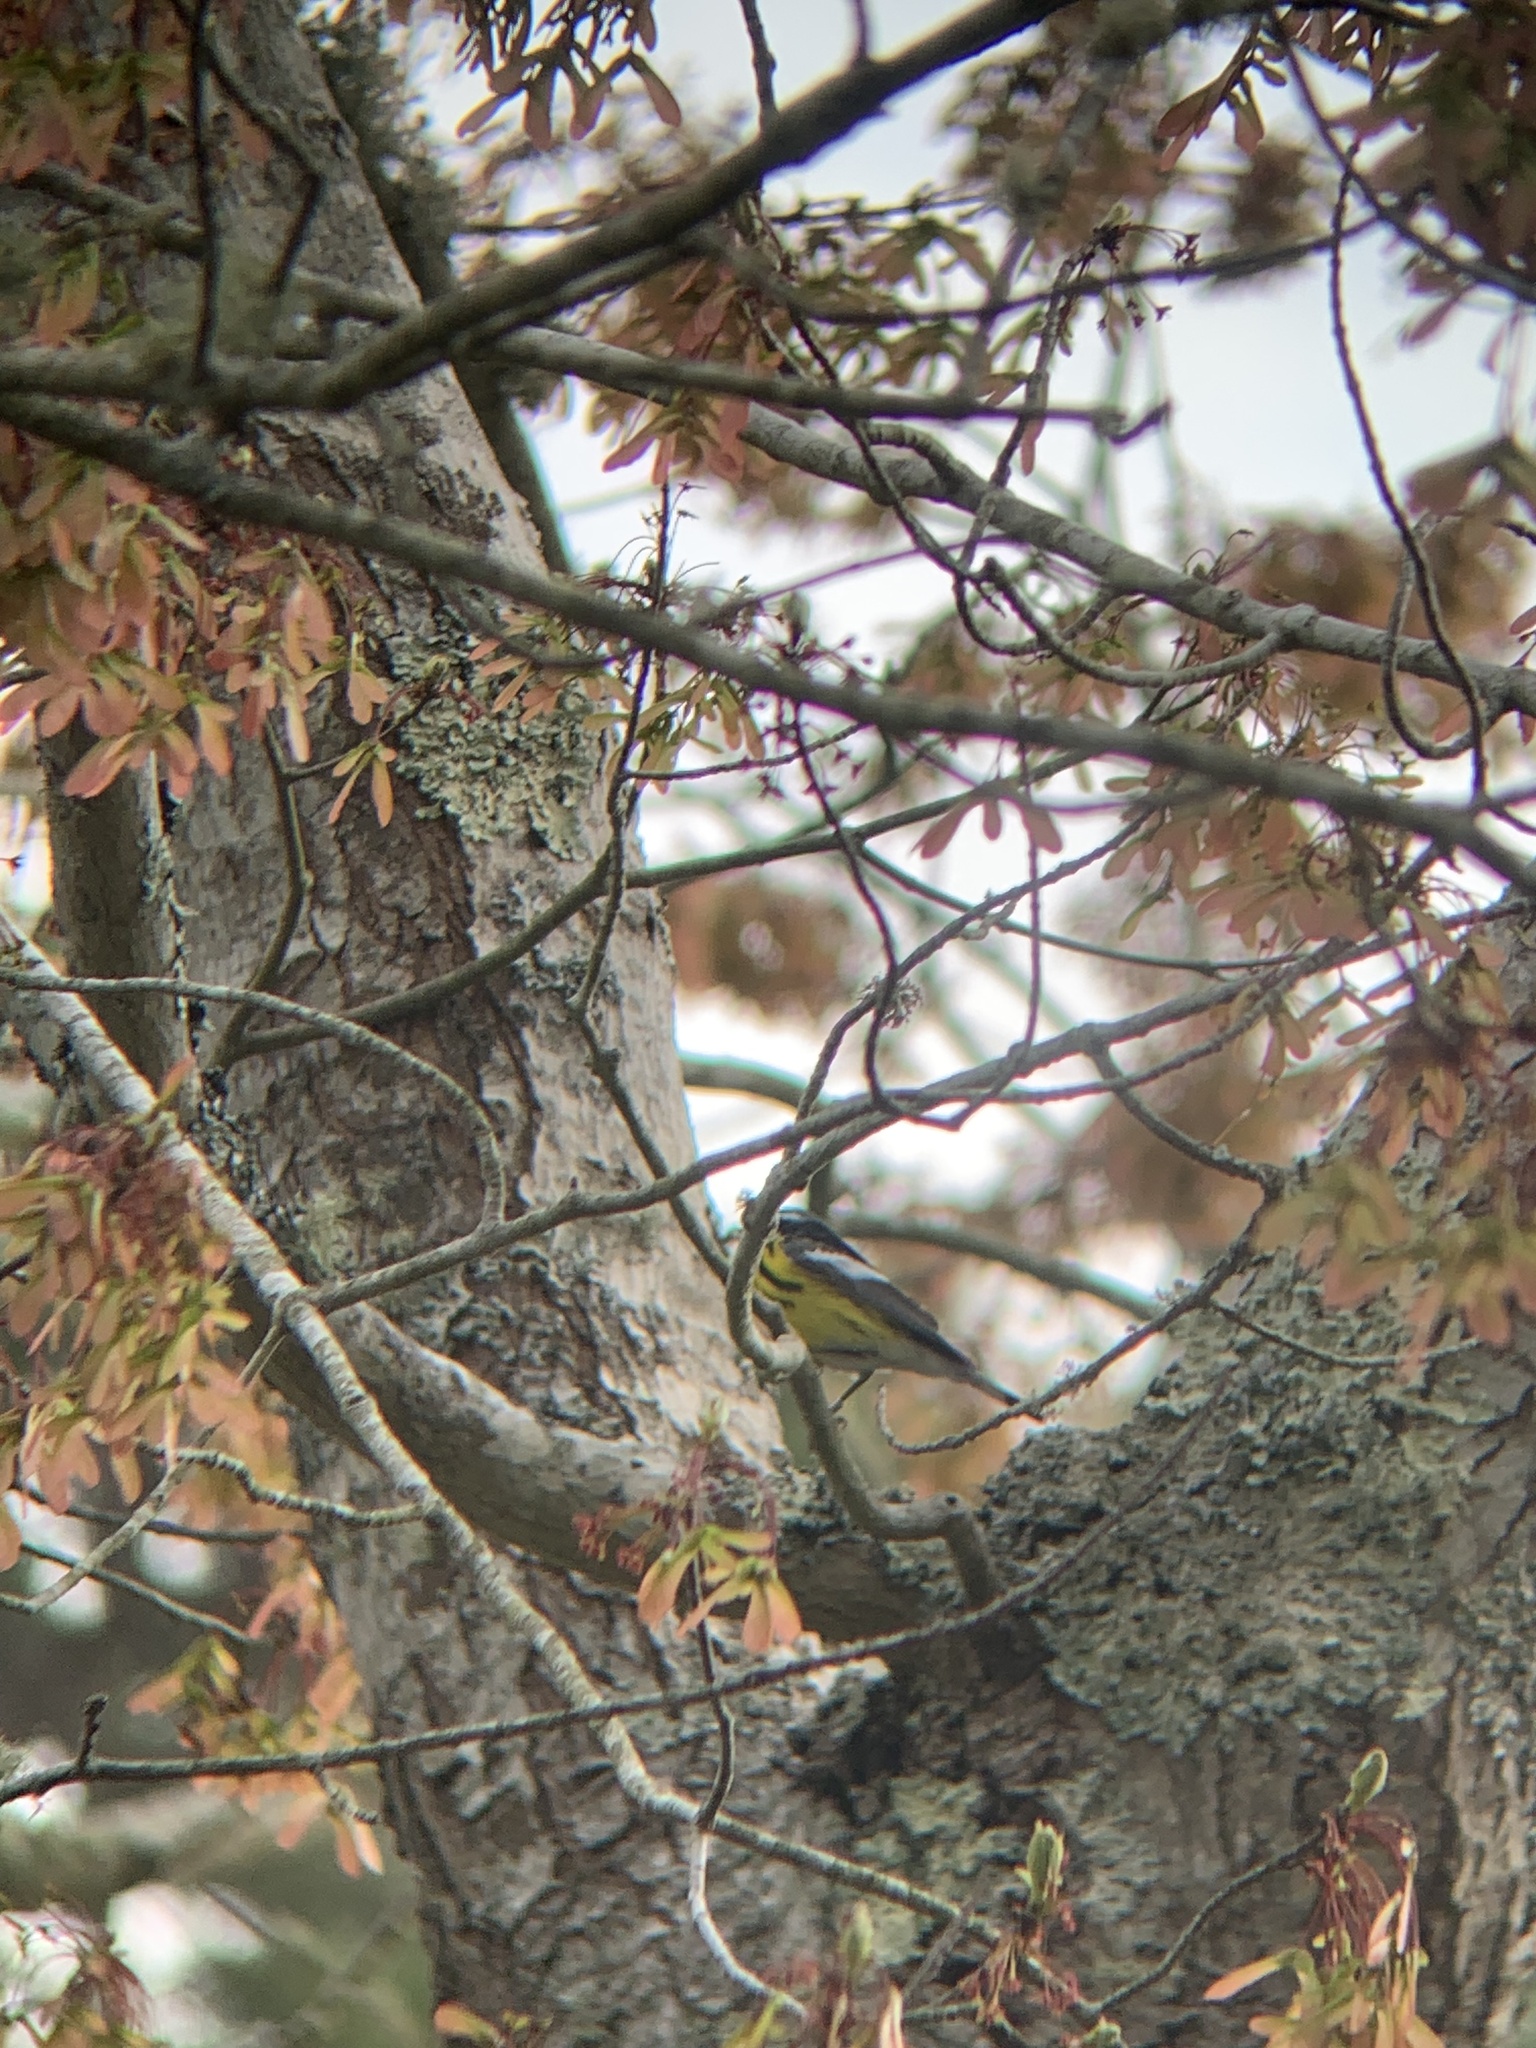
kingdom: Animalia
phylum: Chordata
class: Aves
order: Passeriformes
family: Parulidae
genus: Setophaga
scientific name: Setophaga magnolia
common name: Magnolia warbler
